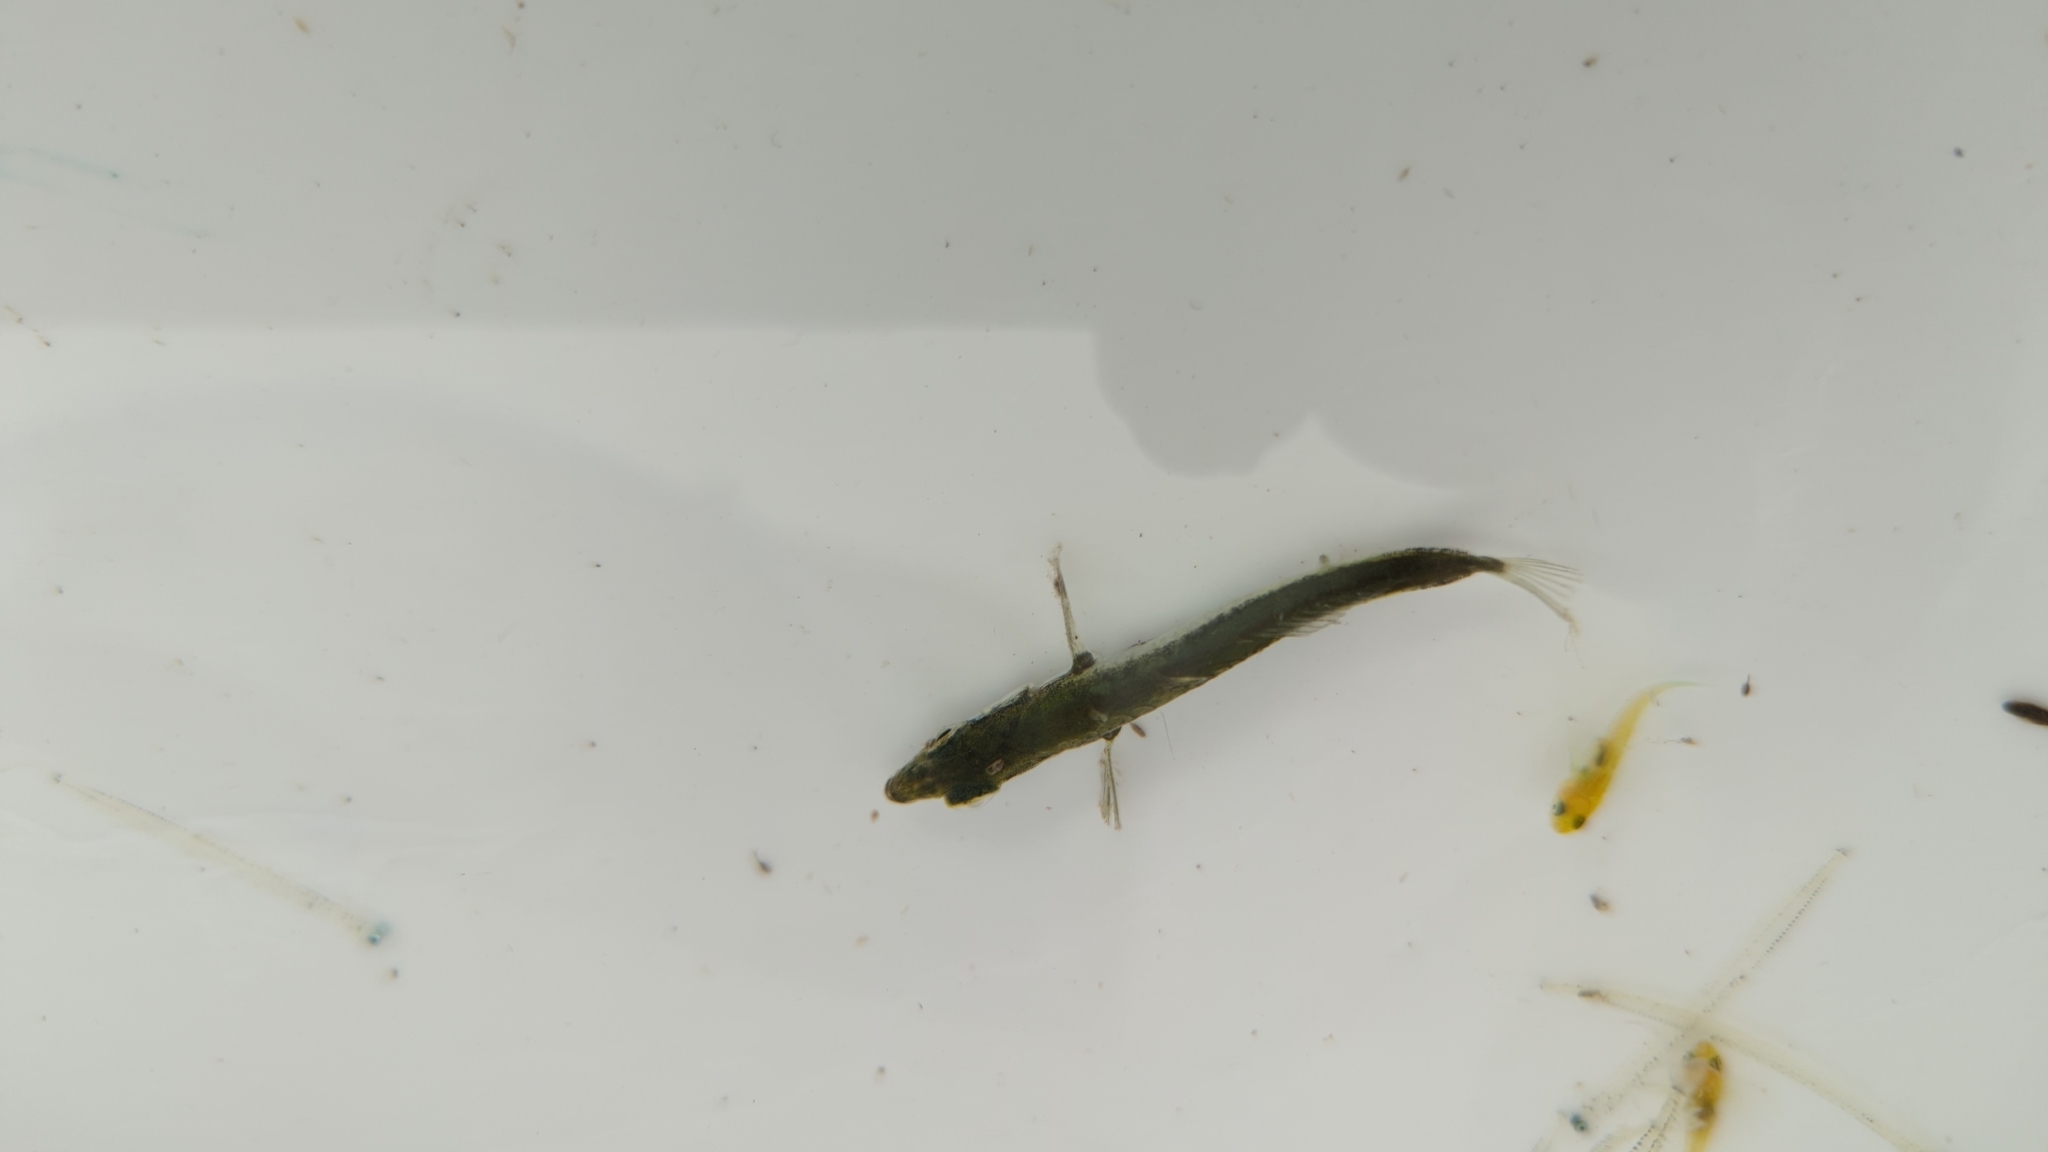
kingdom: Animalia
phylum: Chordata
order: Gasterosteiformes
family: Gasterosteidae
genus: Gasterosteus
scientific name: Gasterosteus aculeatus
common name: Three-spined stickleback
